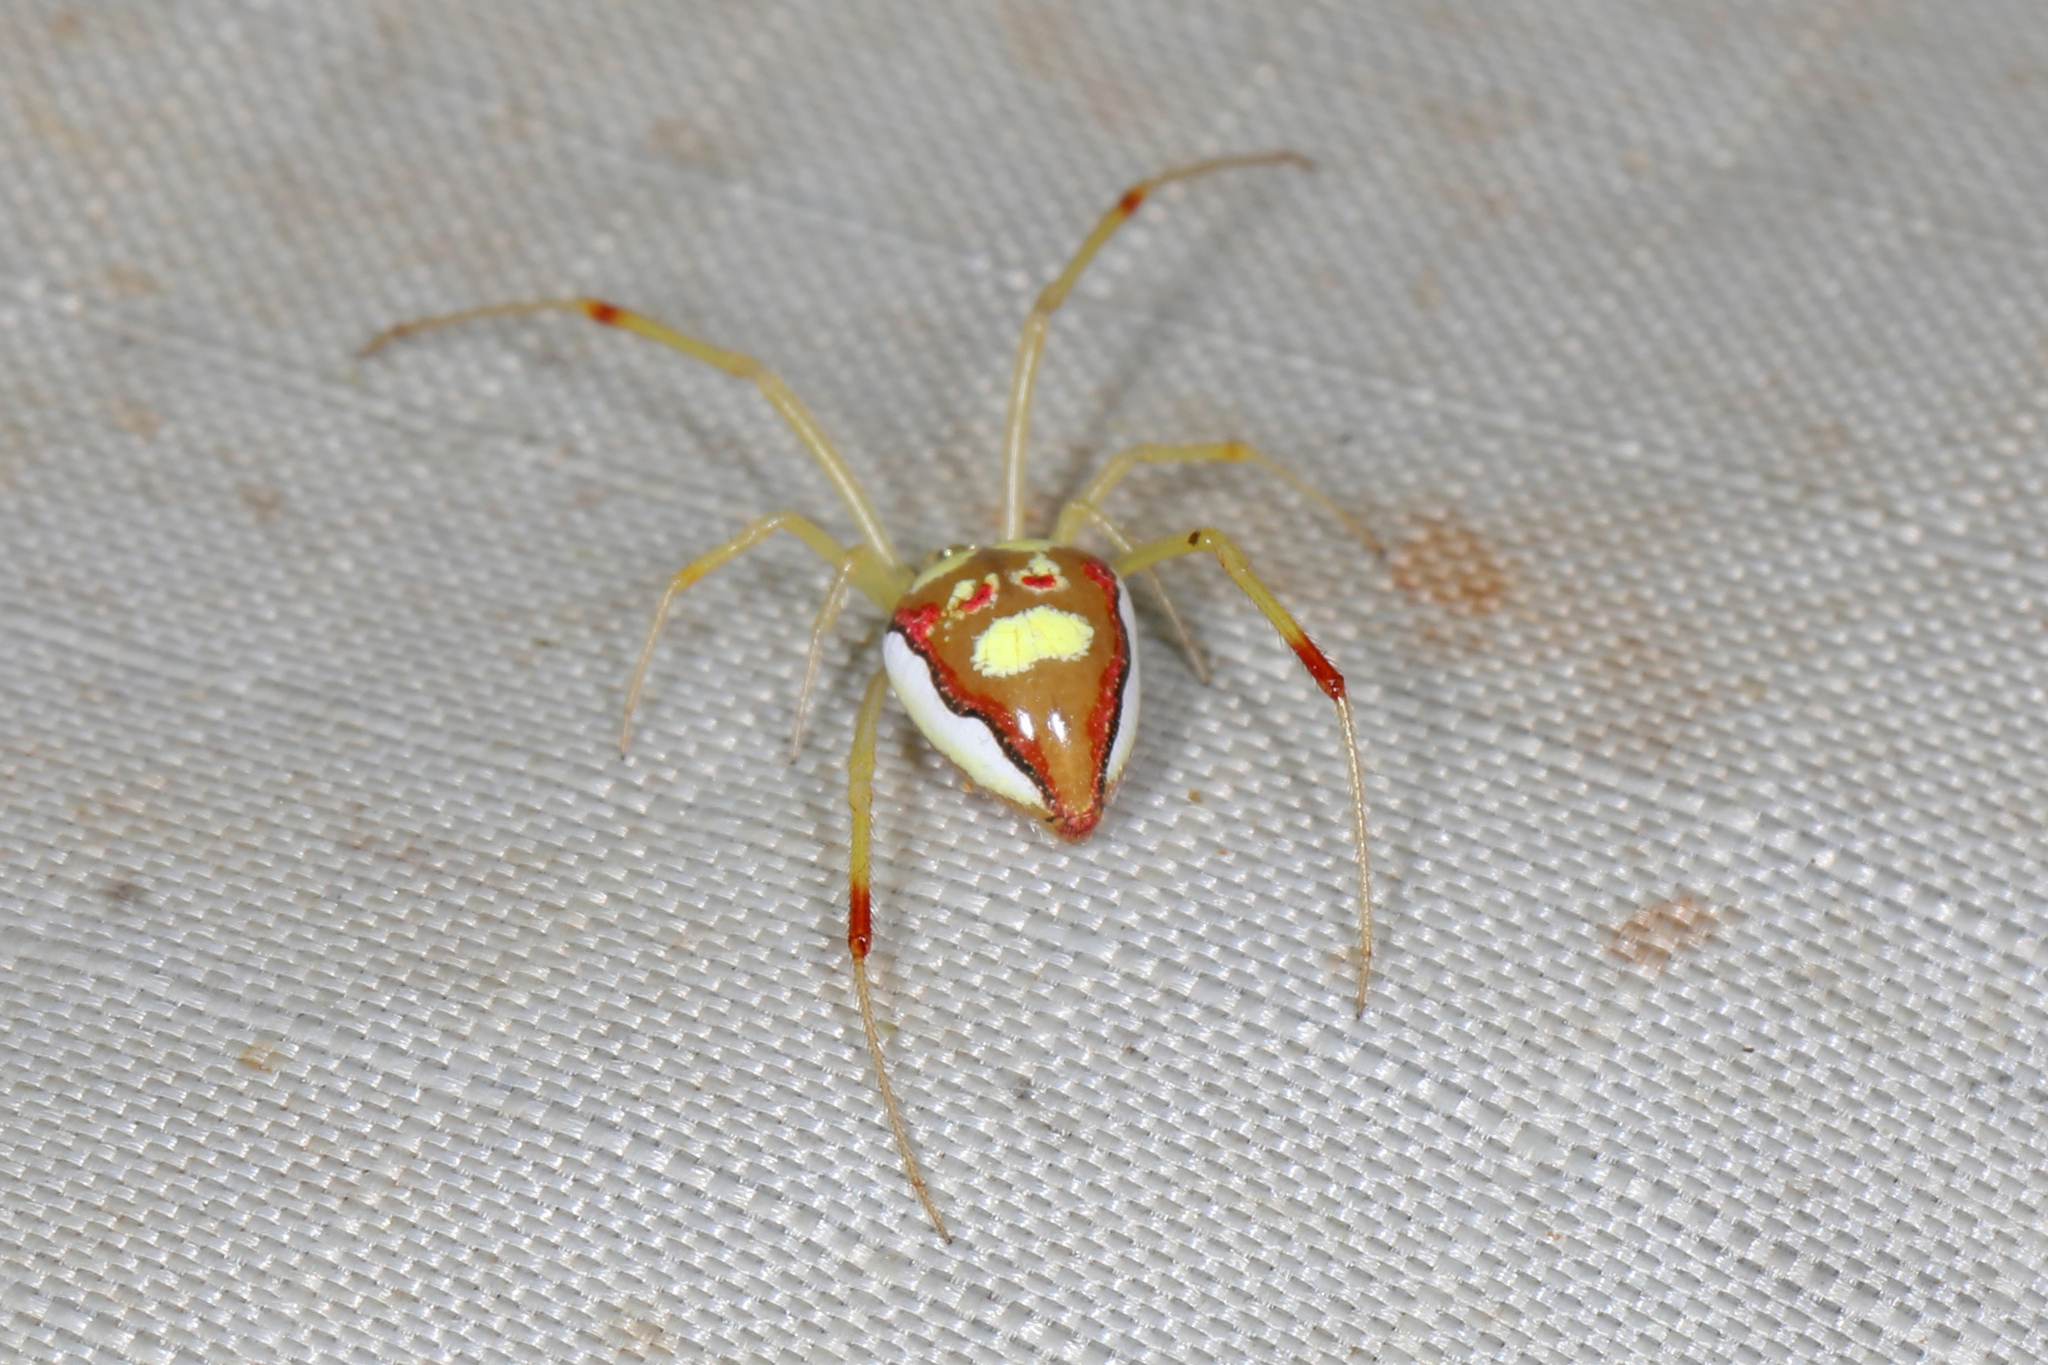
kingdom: Animalia
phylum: Arthropoda
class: Arachnida
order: Araneae
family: Theridiidae
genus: Spintharus
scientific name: Spintharus flavidus
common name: Cobweb spiders
